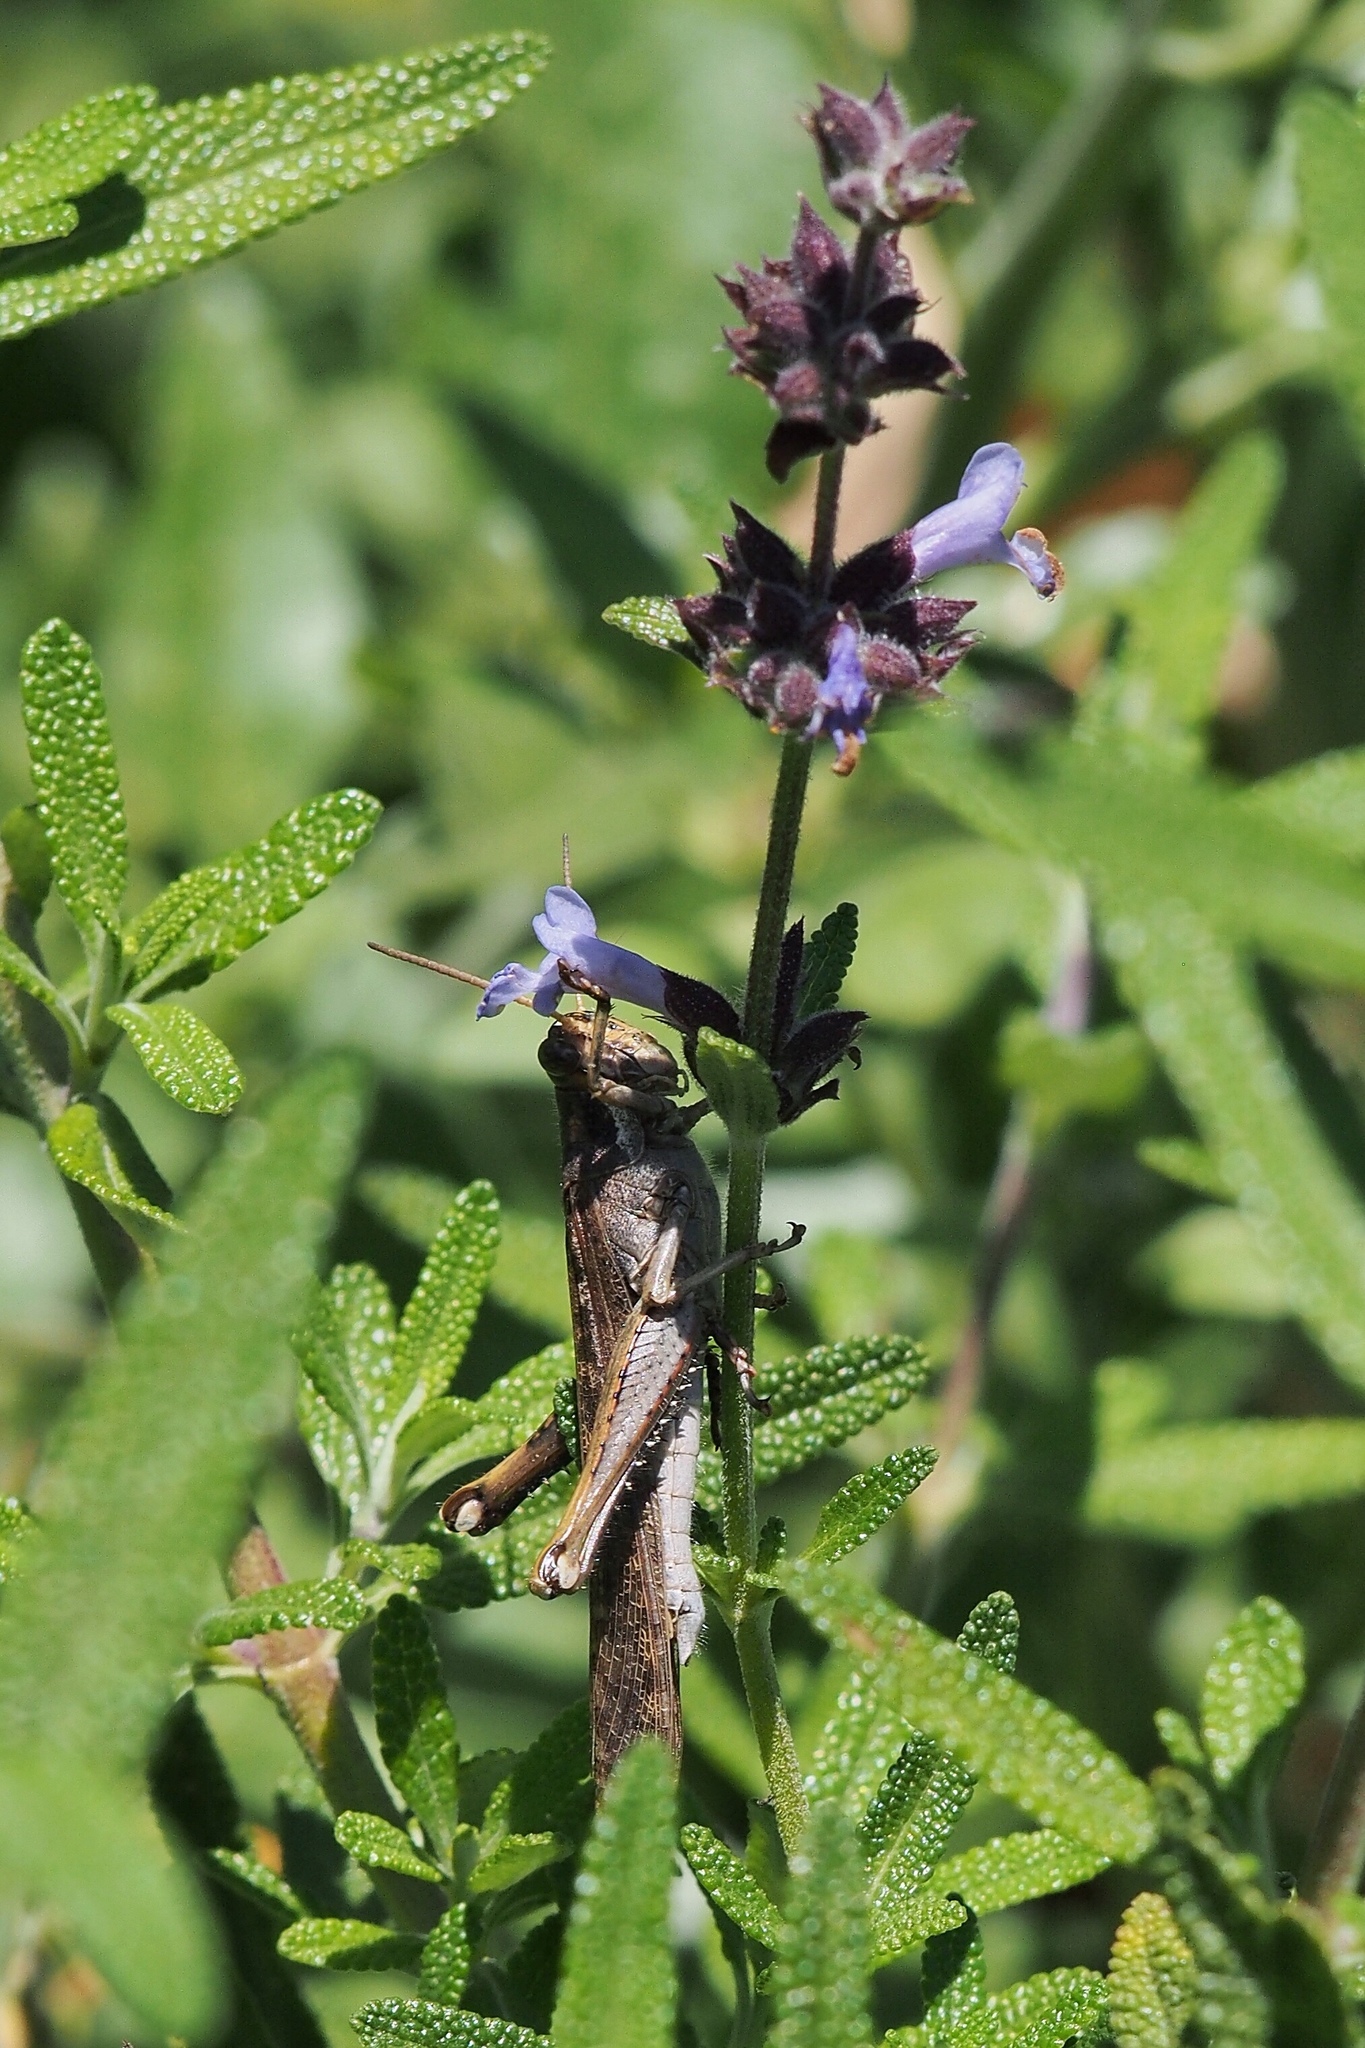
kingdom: Animalia
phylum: Arthropoda
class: Insecta
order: Orthoptera
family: Acrididae
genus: Schistocerca
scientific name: Schistocerca nitens
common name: Vagrant grasshopper
